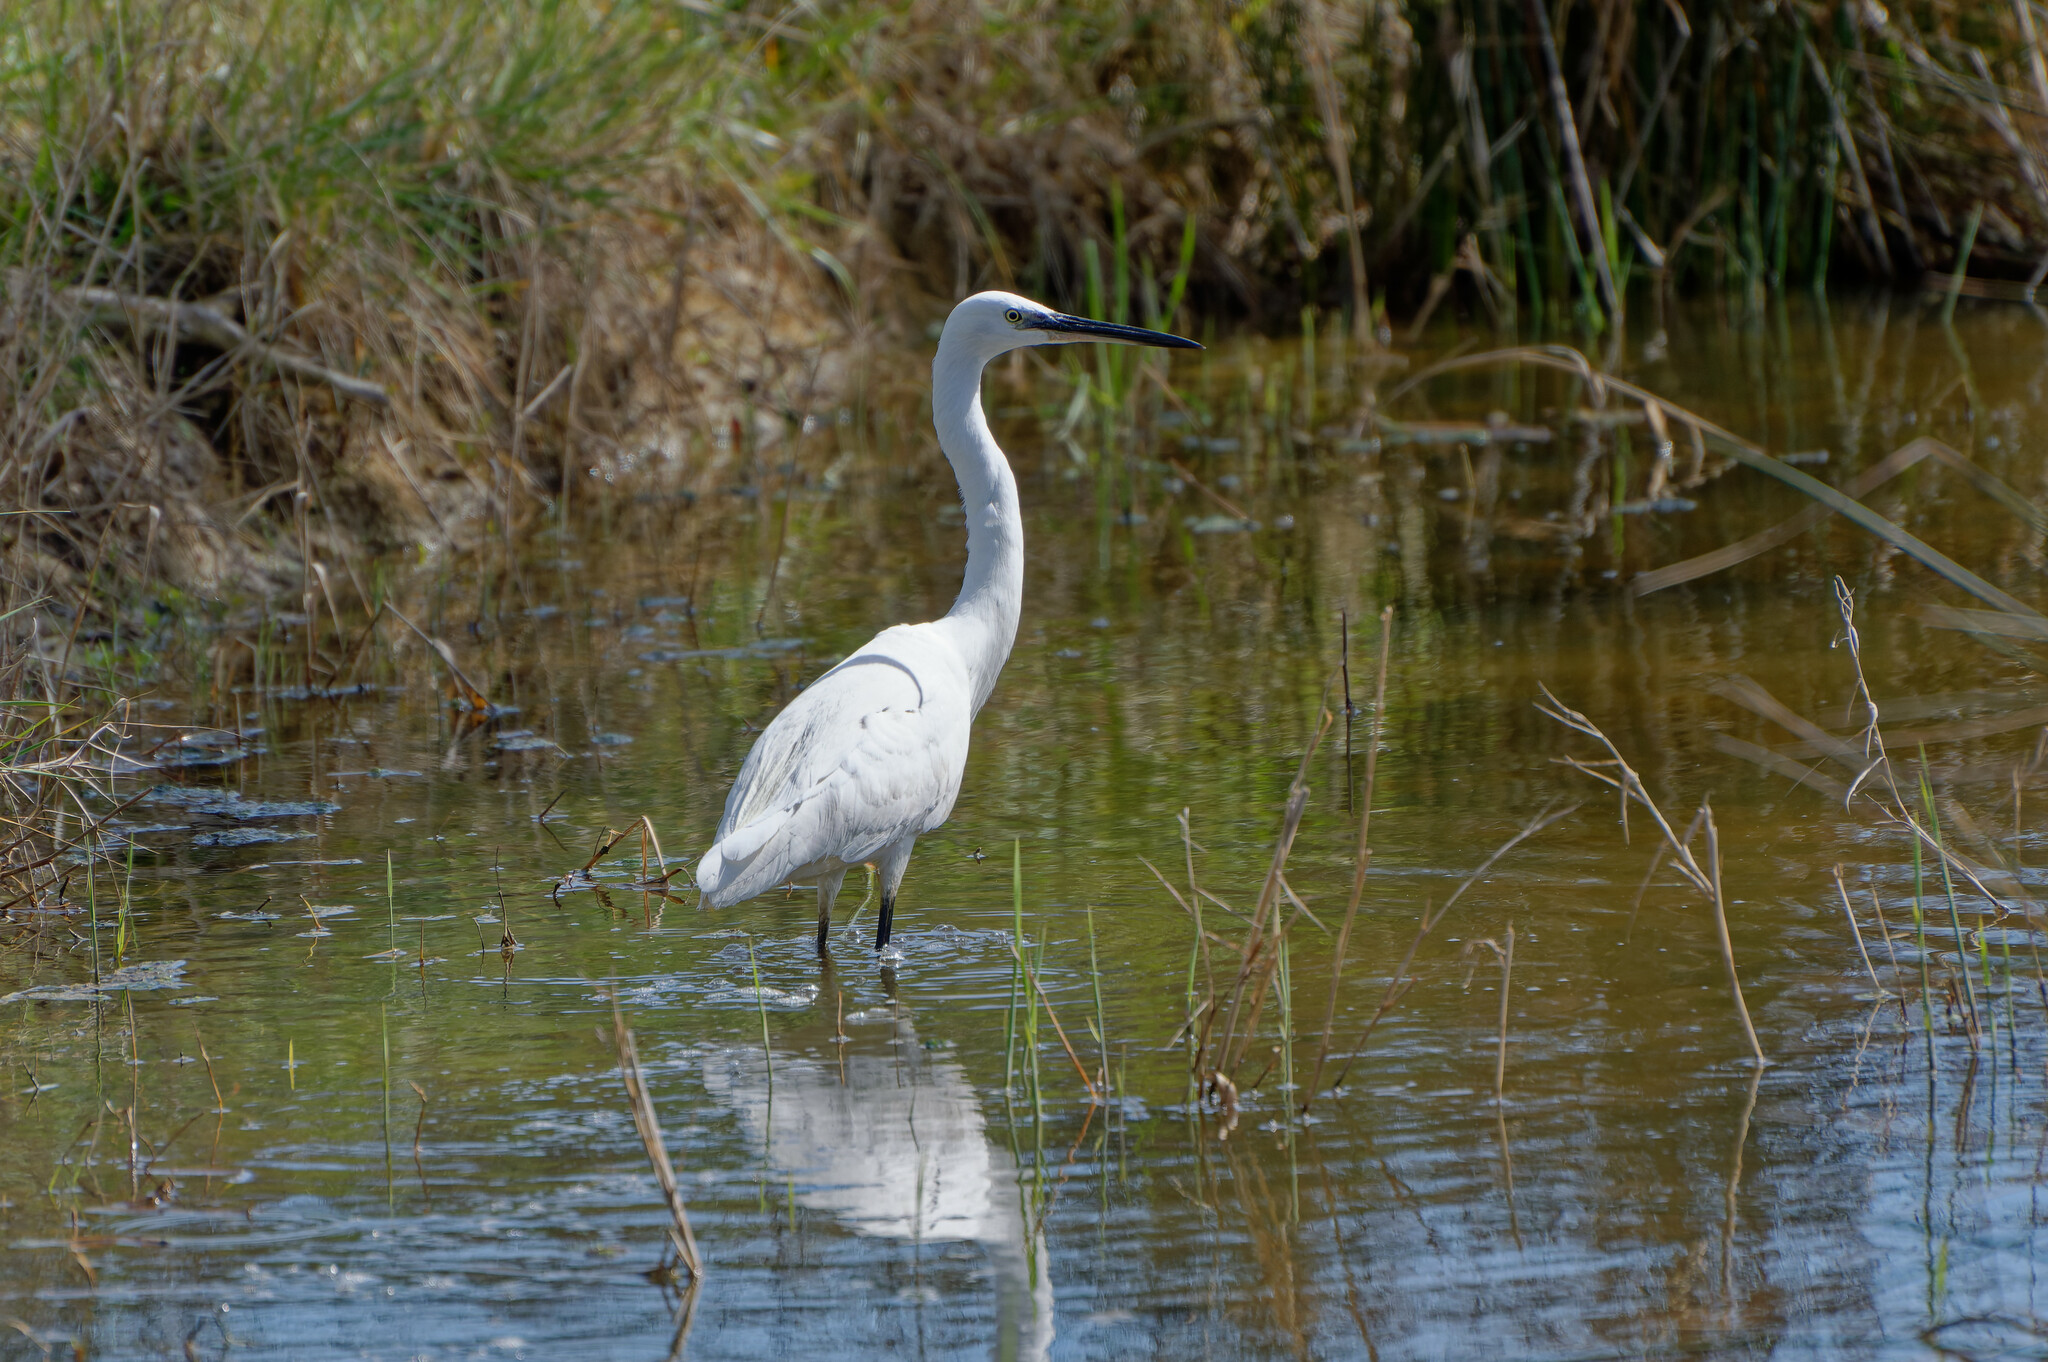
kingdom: Animalia
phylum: Chordata
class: Aves
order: Pelecaniformes
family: Ardeidae
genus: Egretta
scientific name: Egretta garzetta
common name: Little egret
